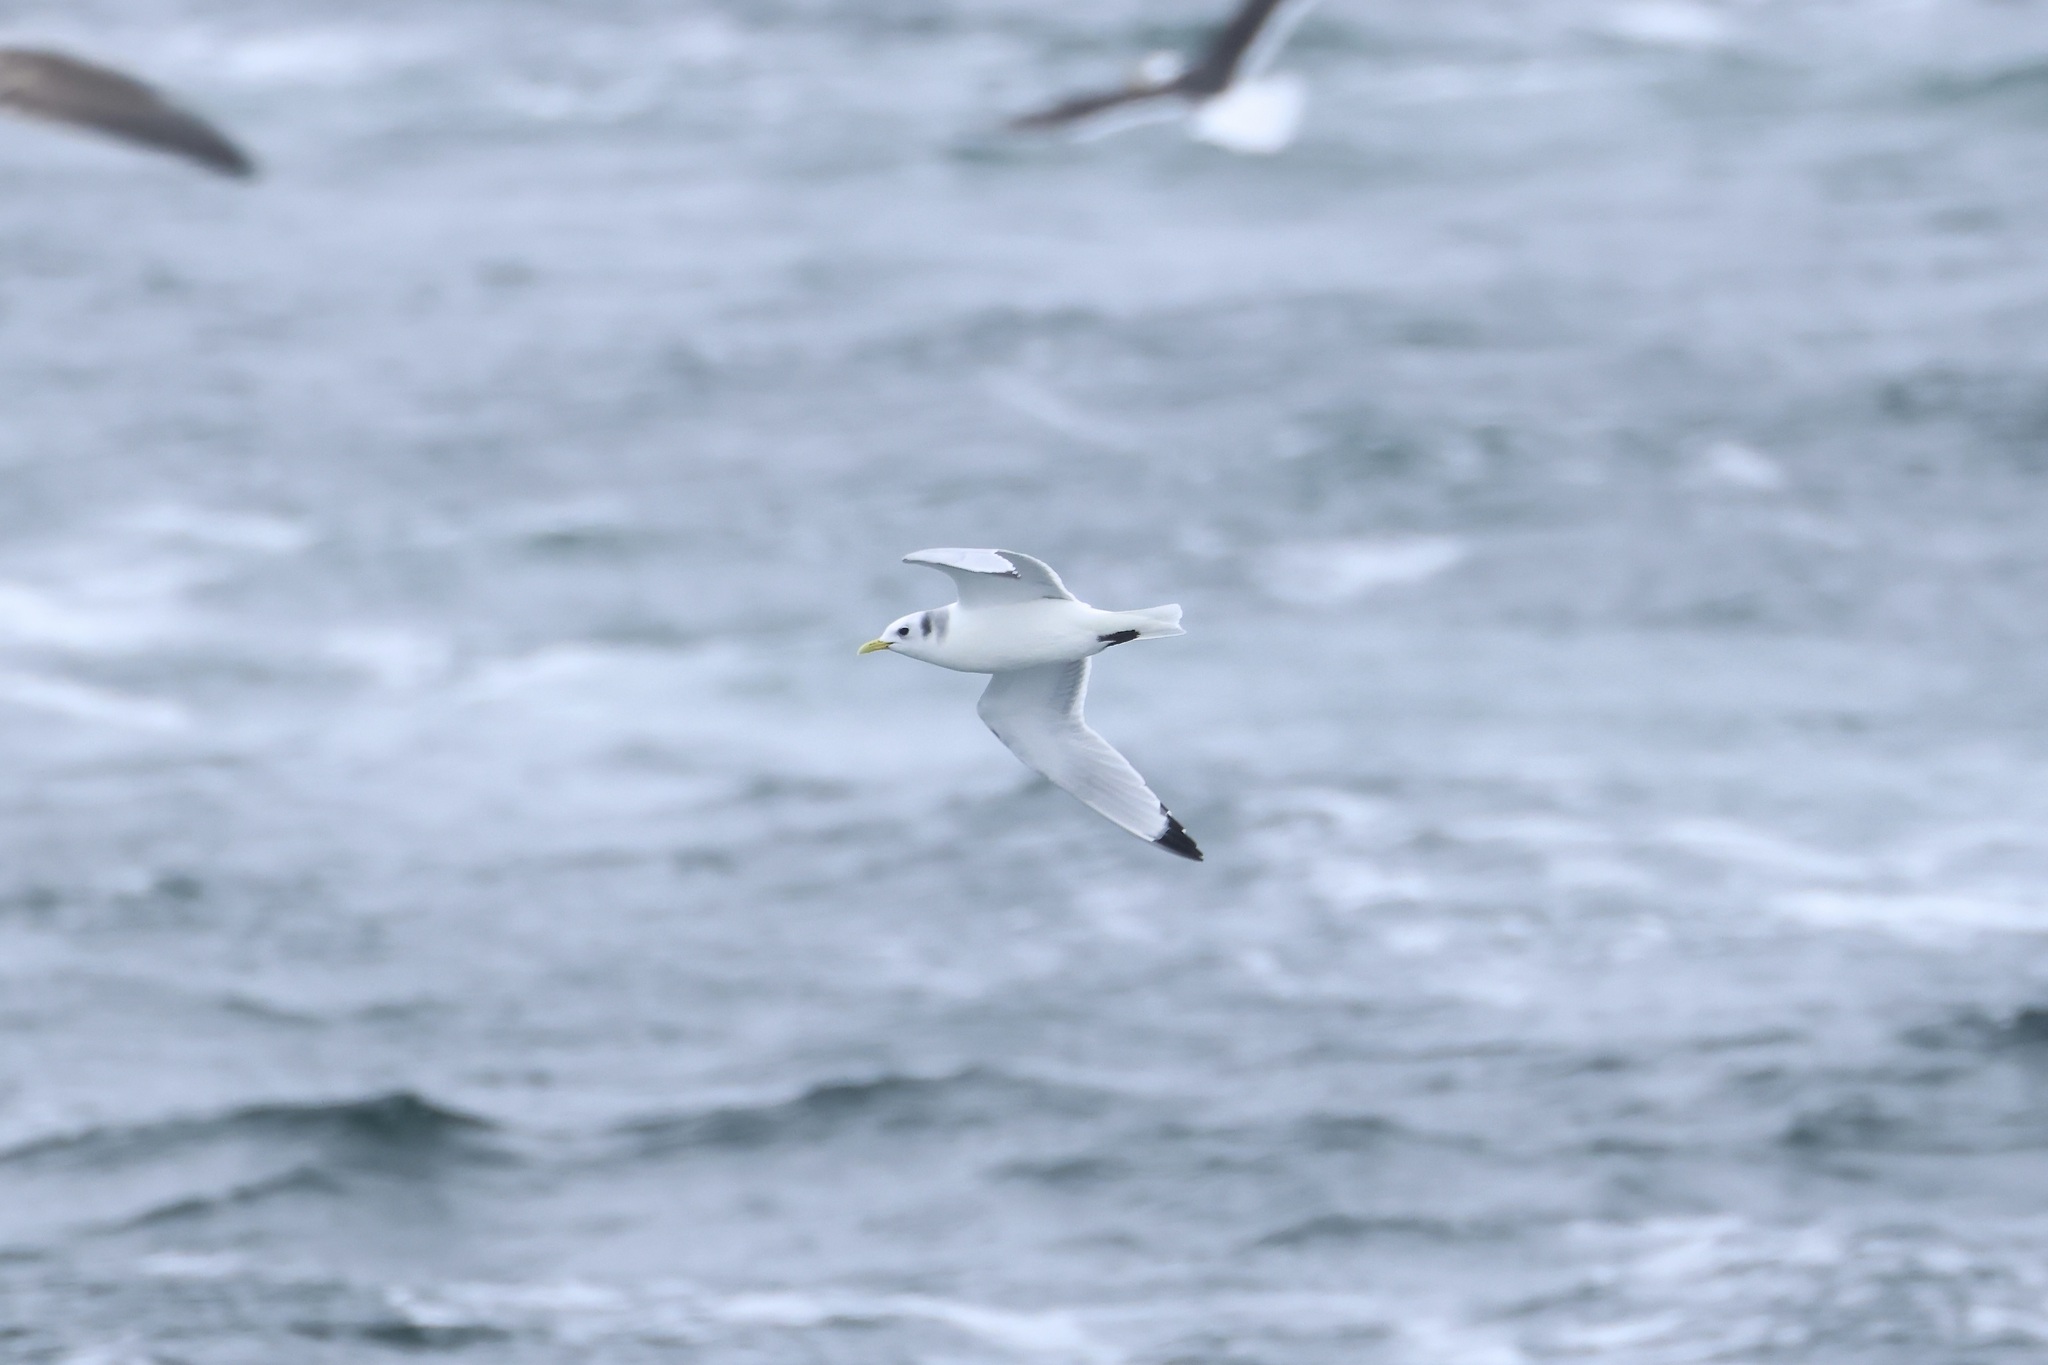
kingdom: Animalia
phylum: Chordata
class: Aves
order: Charadriiformes
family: Laridae
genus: Rissa
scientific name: Rissa tridactyla
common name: Black-legged kittiwake
